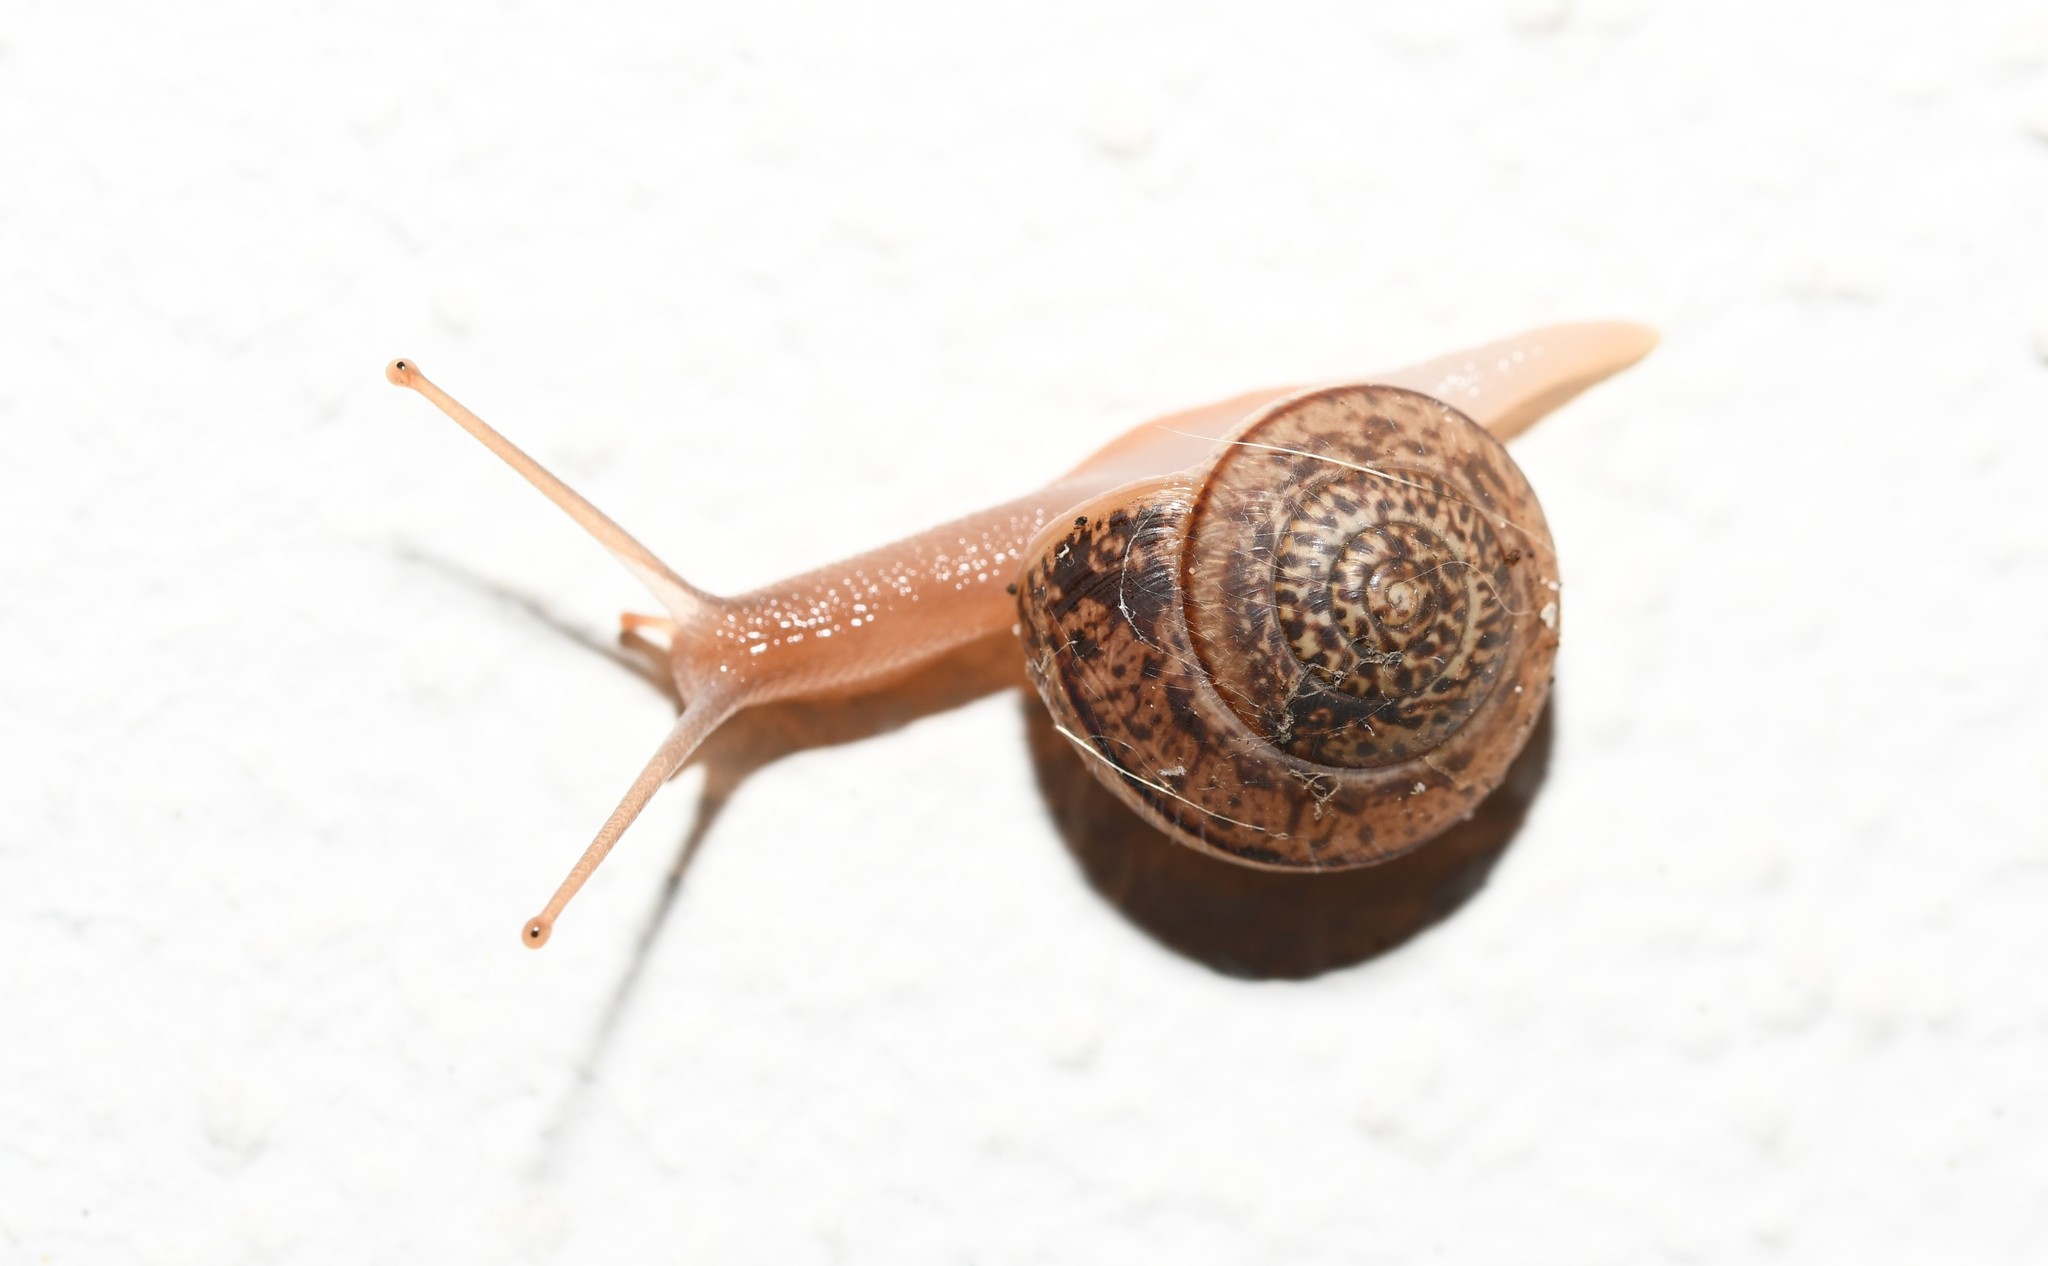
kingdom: Animalia
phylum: Mollusca
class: Gastropoda
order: Stylommatophora
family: Hygromiidae
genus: Portugala
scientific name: Portugala inchoata
